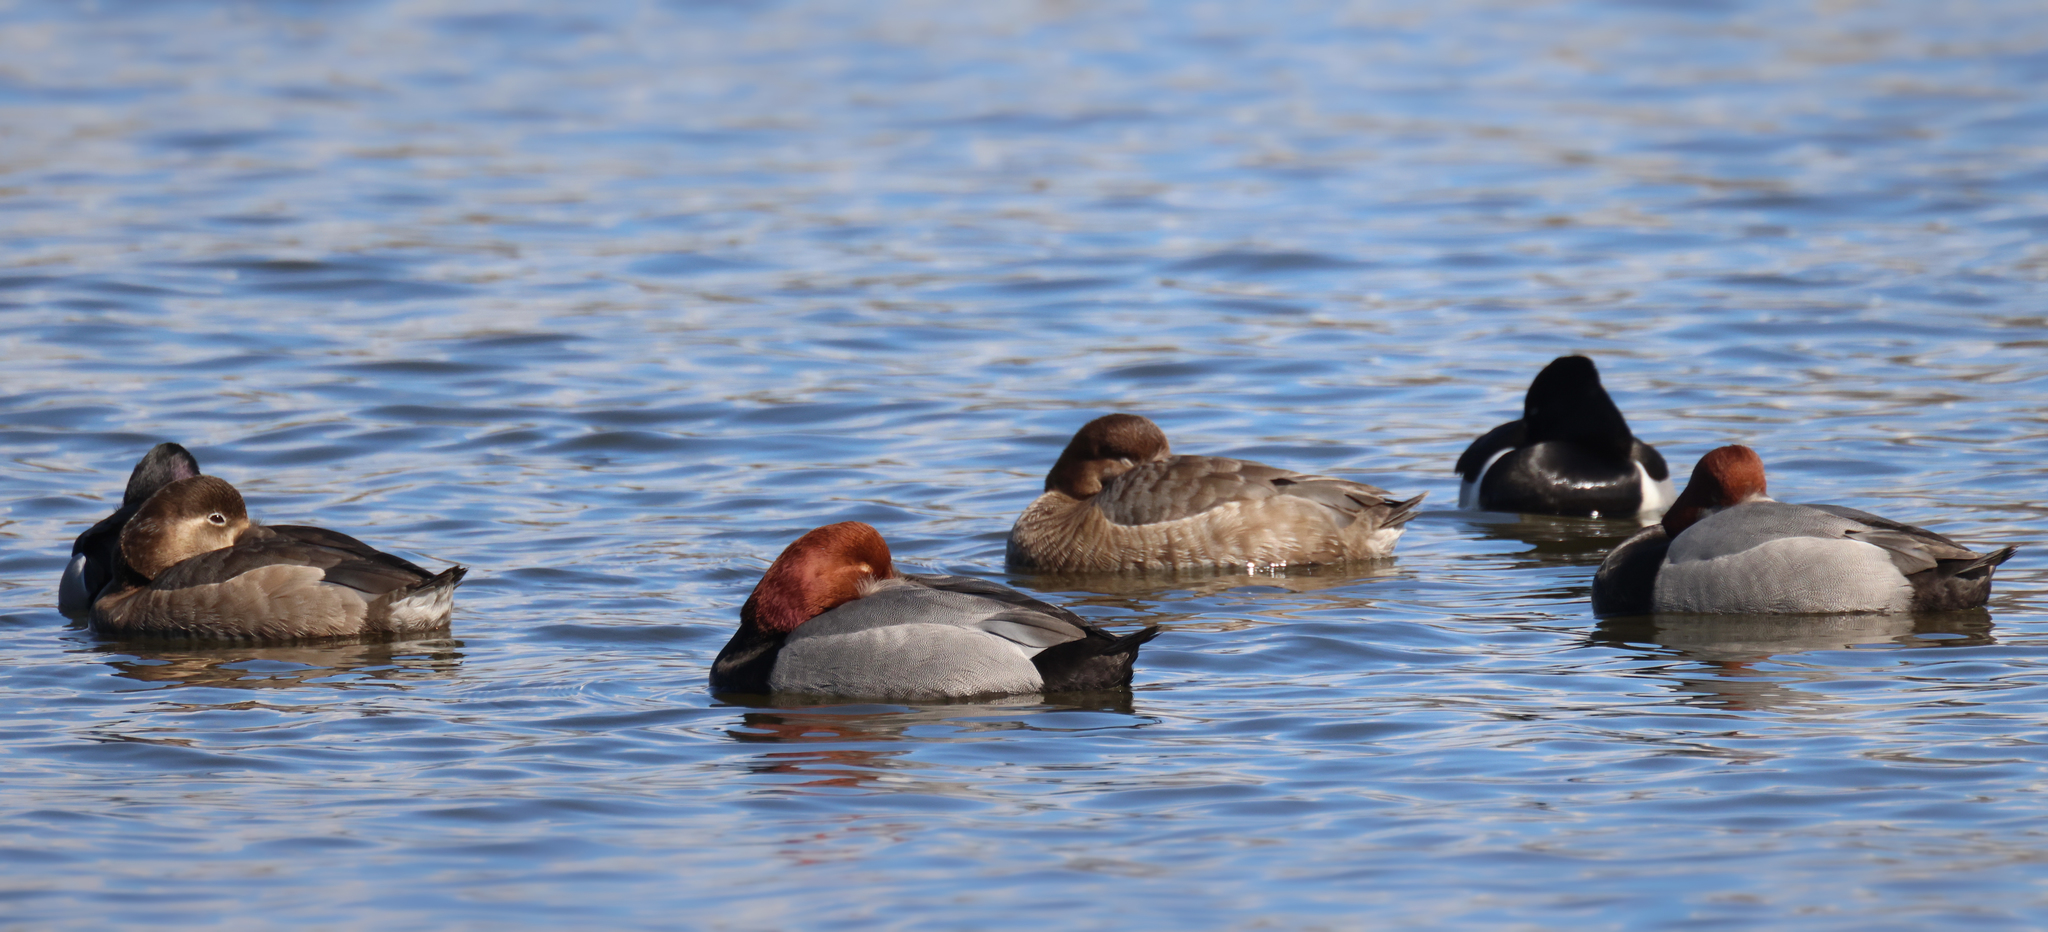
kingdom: Animalia
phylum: Chordata
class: Aves
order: Anseriformes
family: Anatidae
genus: Aythya
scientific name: Aythya collaris
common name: Ring-necked duck
